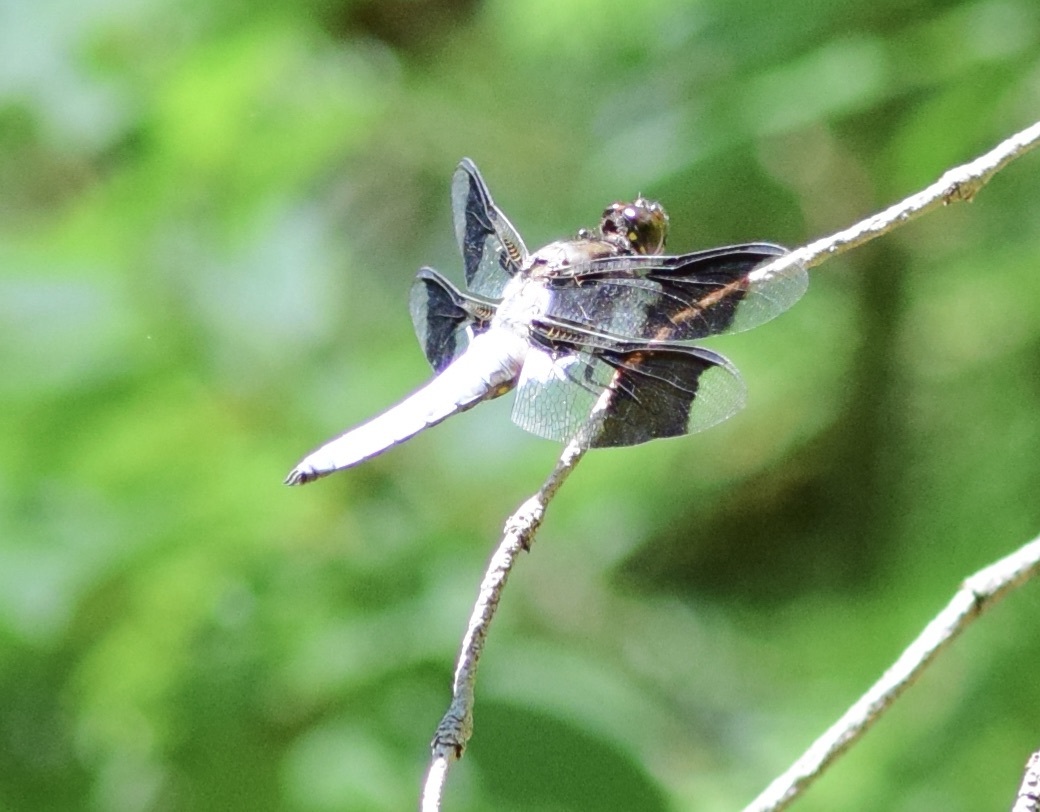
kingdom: Animalia
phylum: Arthropoda
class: Insecta
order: Odonata
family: Libellulidae
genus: Plathemis
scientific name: Plathemis lydia
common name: Common whitetail
